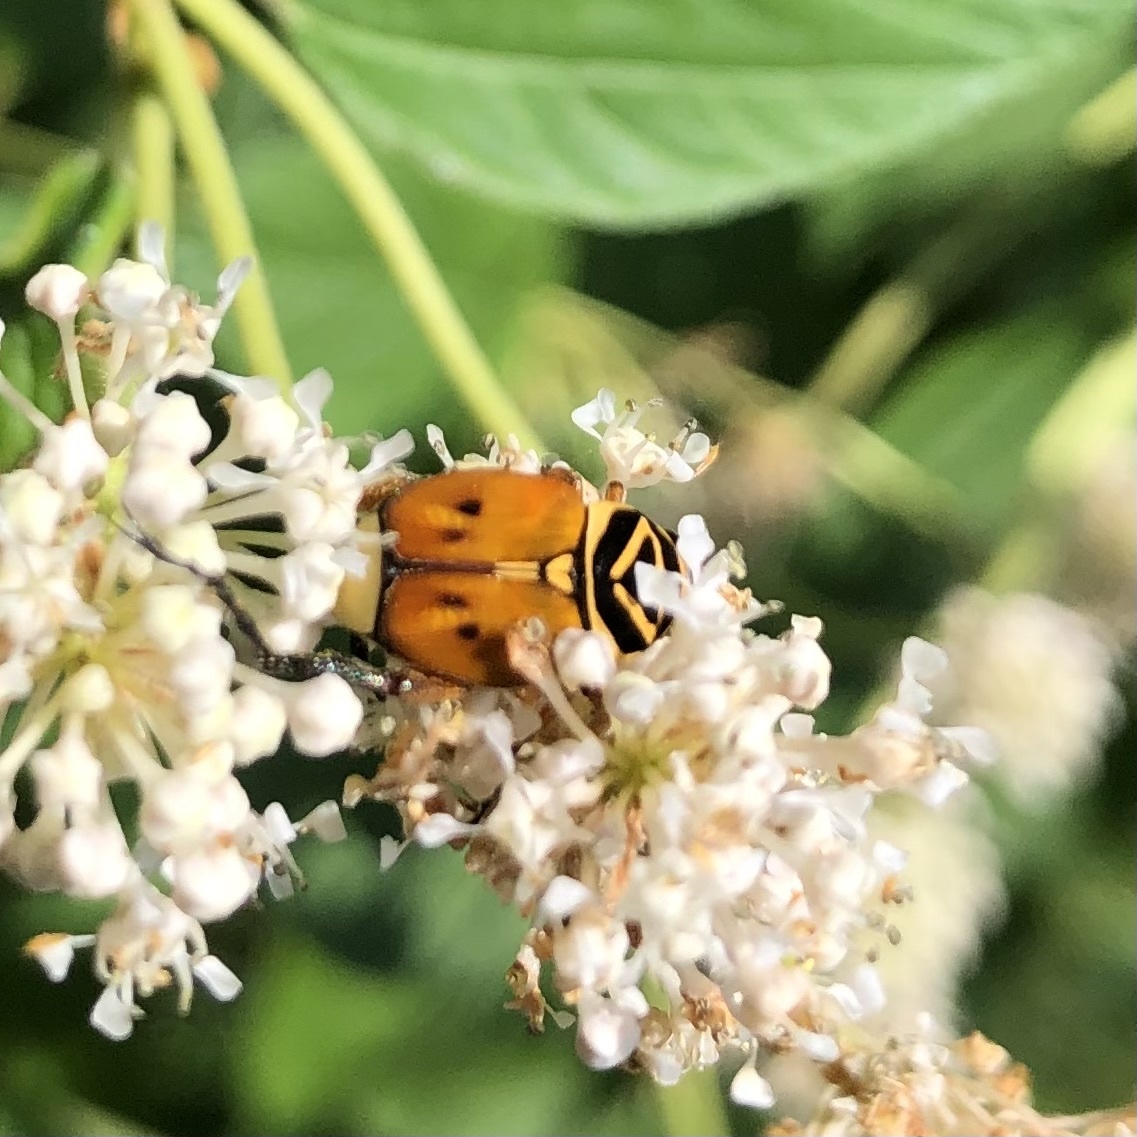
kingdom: Animalia
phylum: Arthropoda
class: Insecta
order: Coleoptera
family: Scarabaeidae
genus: Trigonopeltastes
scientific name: Trigonopeltastes delta
